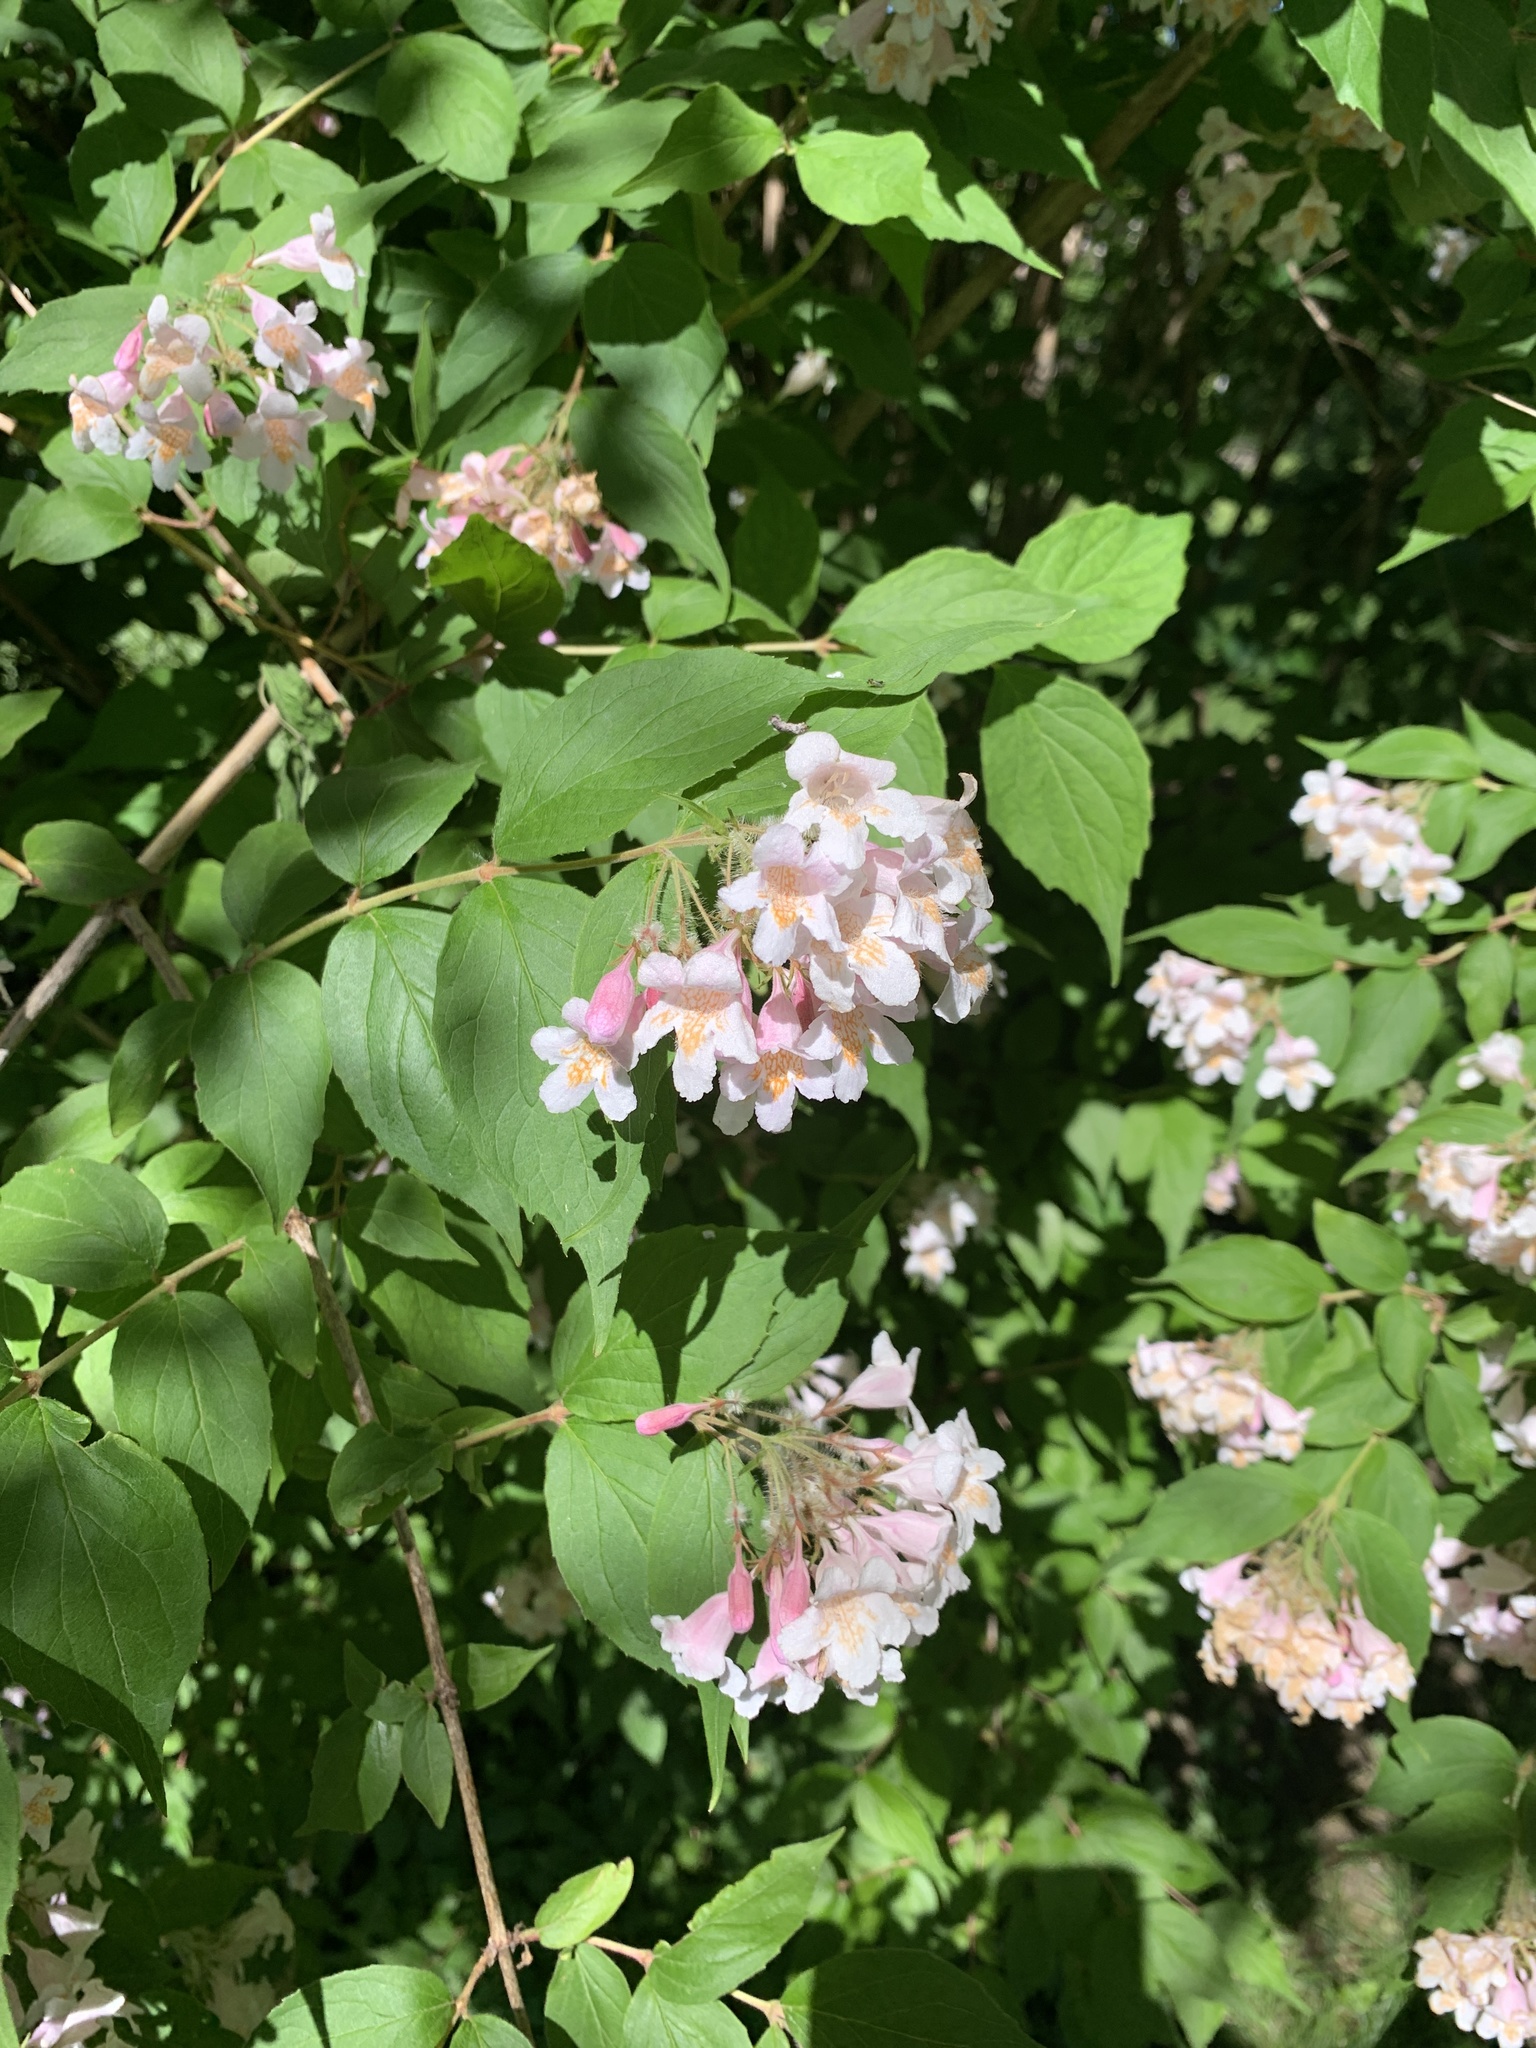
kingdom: Plantae
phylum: Tracheophyta
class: Magnoliopsida
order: Dipsacales
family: Caprifoliaceae
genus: Kolkwitzia
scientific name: Kolkwitzia amabilis
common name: Beautybush
